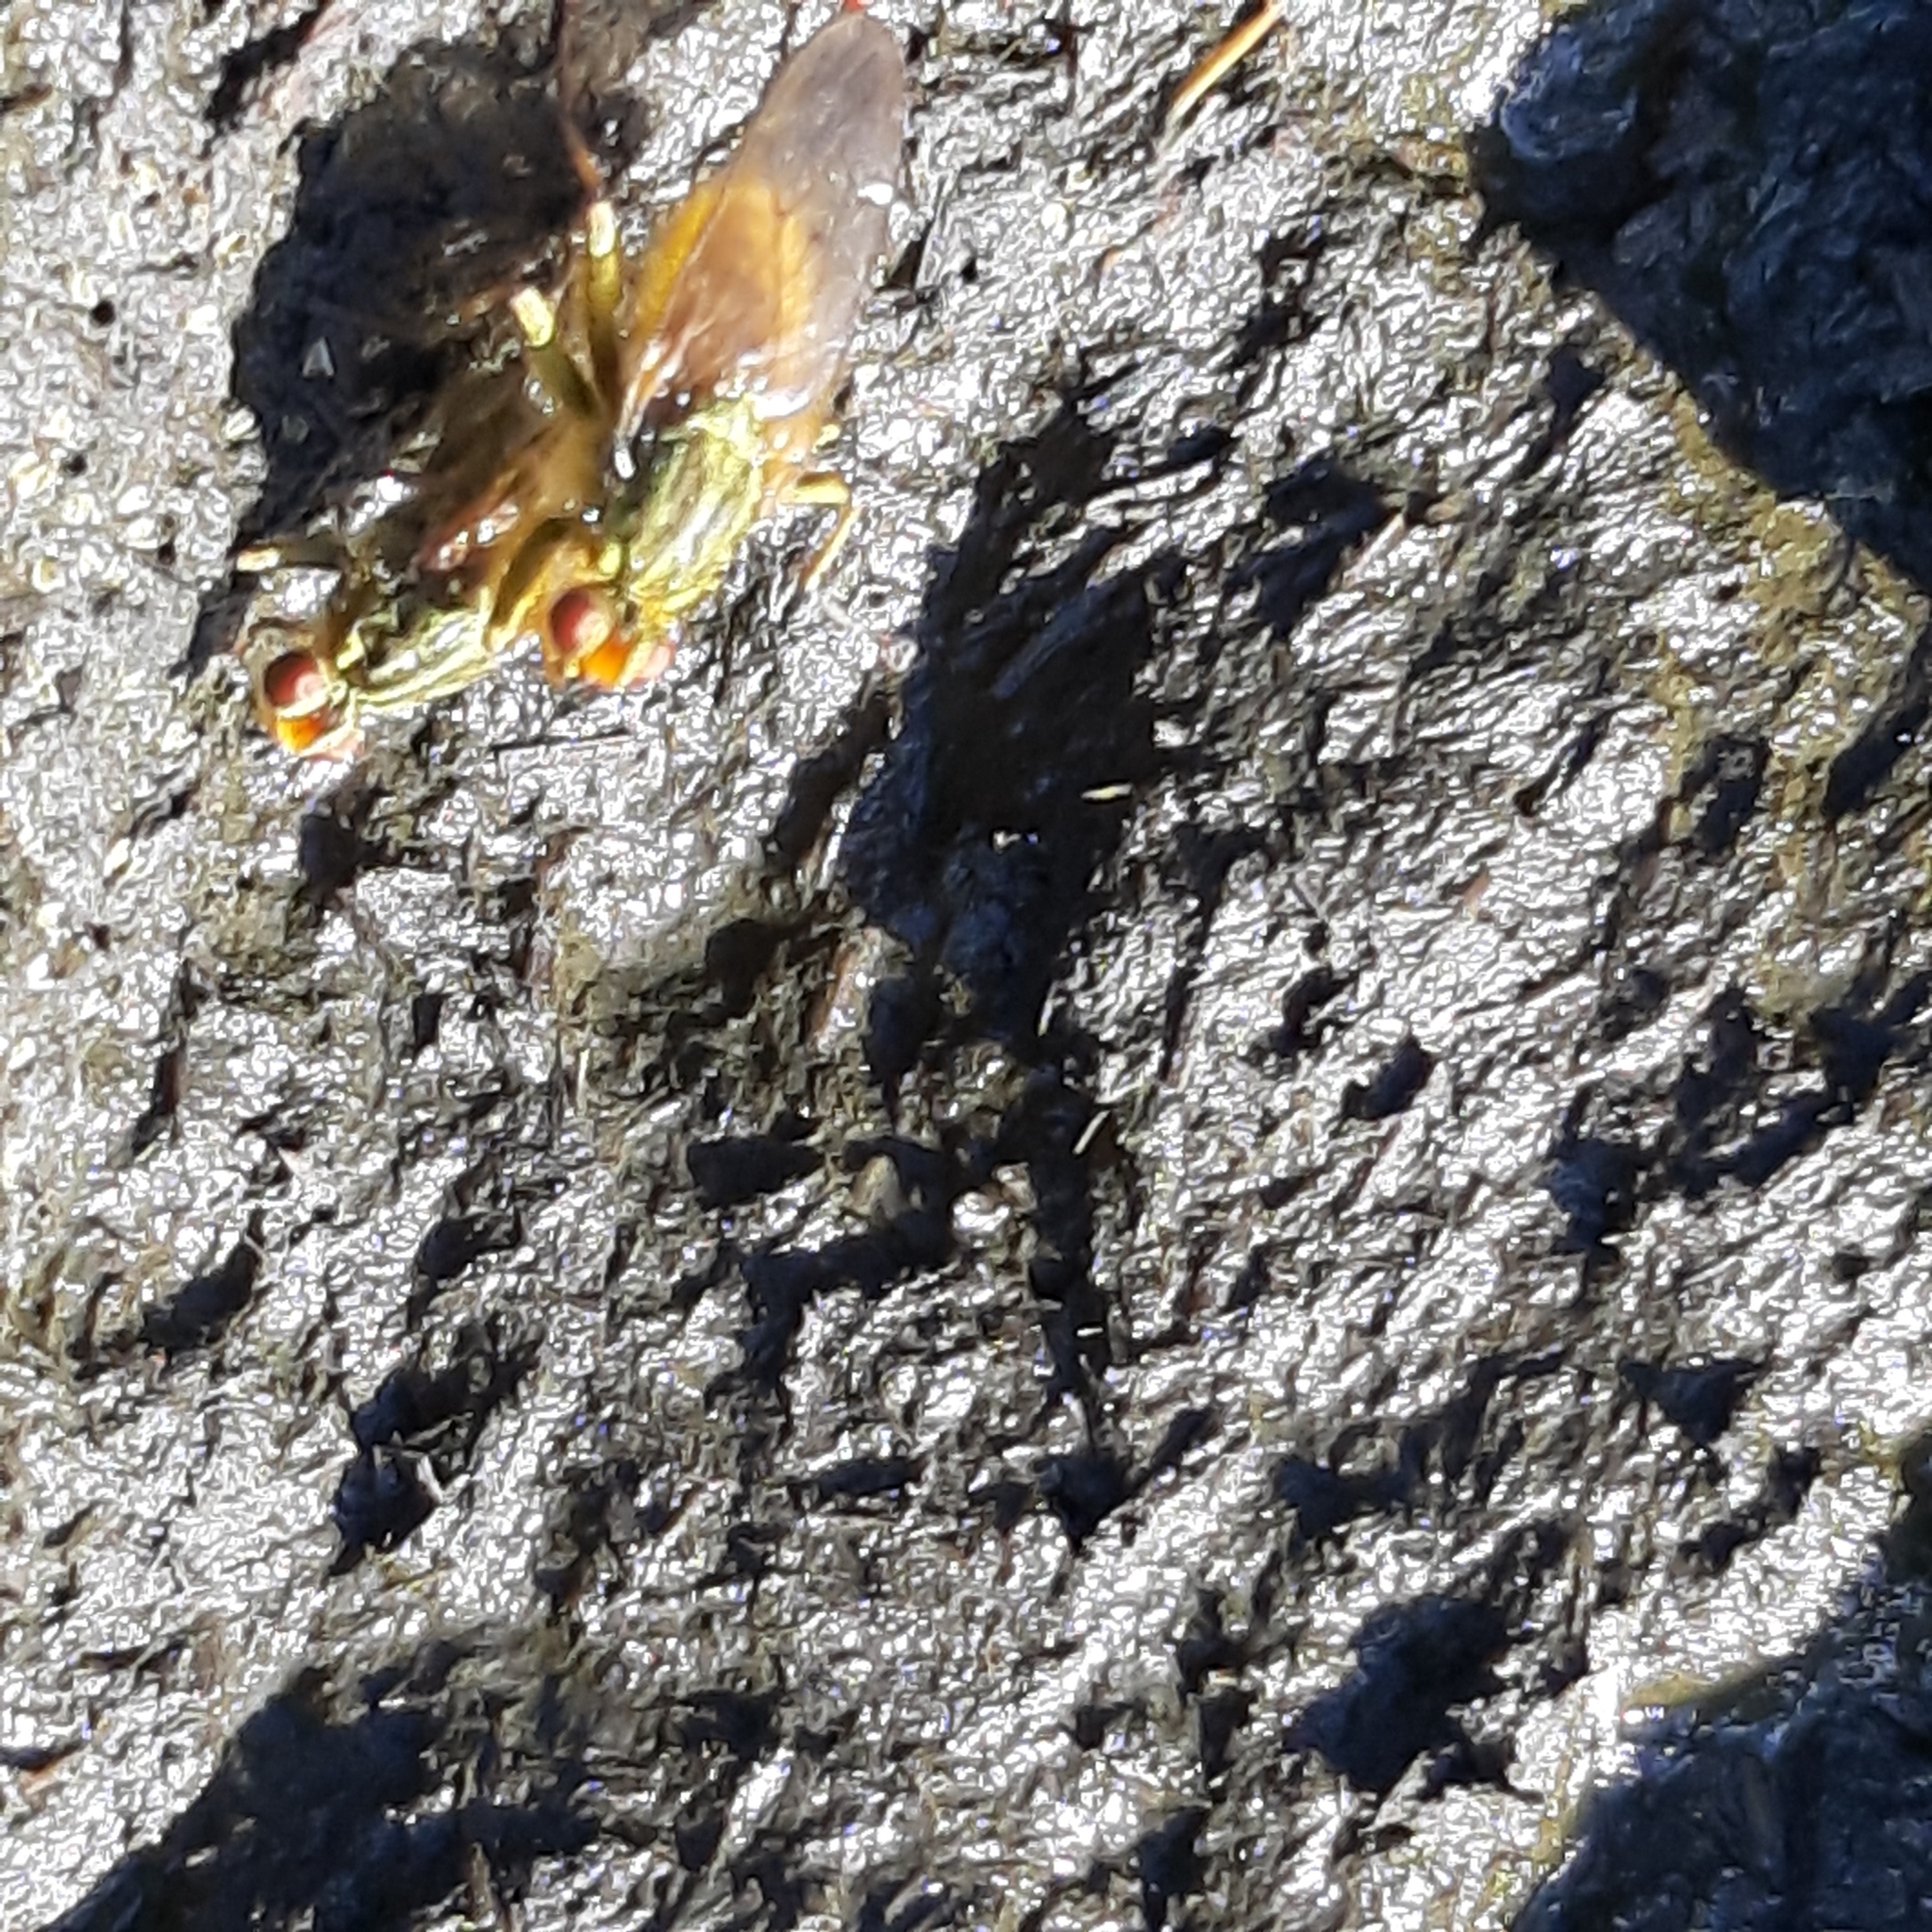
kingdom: Animalia
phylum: Arthropoda
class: Insecta
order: Diptera
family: Scathophagidae
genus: Scathophaga
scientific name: Scathophaga stercoraria
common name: Yellow dung fly
